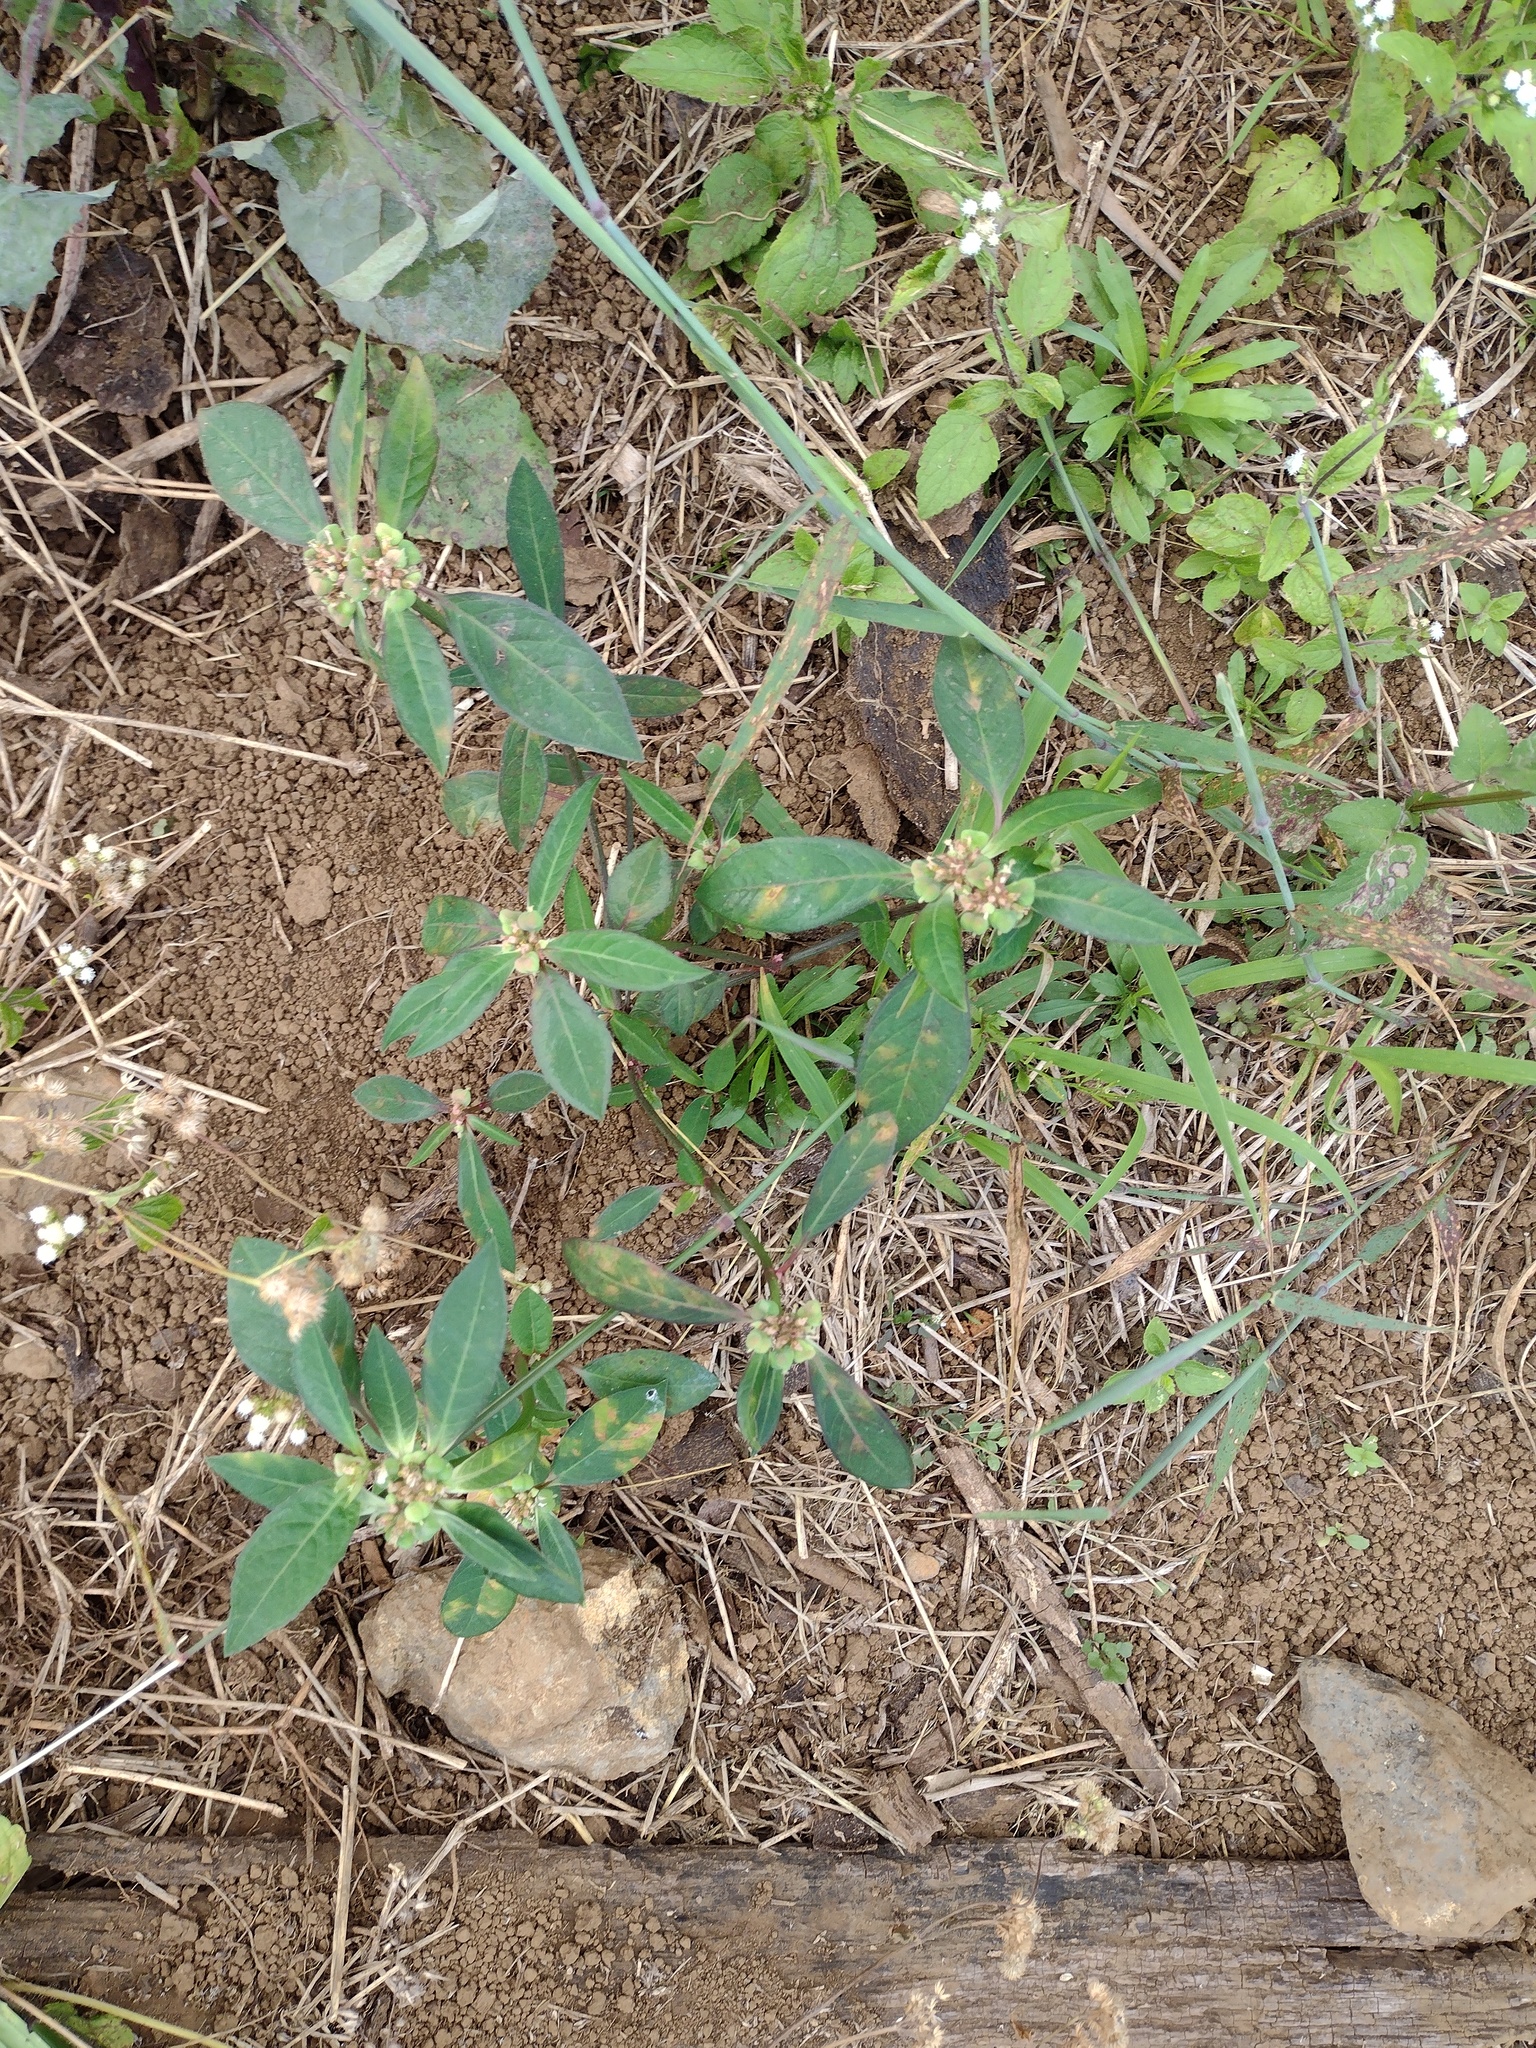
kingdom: Plantae
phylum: Tracheophyta
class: Magnoliopsida
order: Malpighiales
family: Euphorbiaceae
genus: Euphorbia
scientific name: Euphorbia heterophylla
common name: Mexican fireplant
